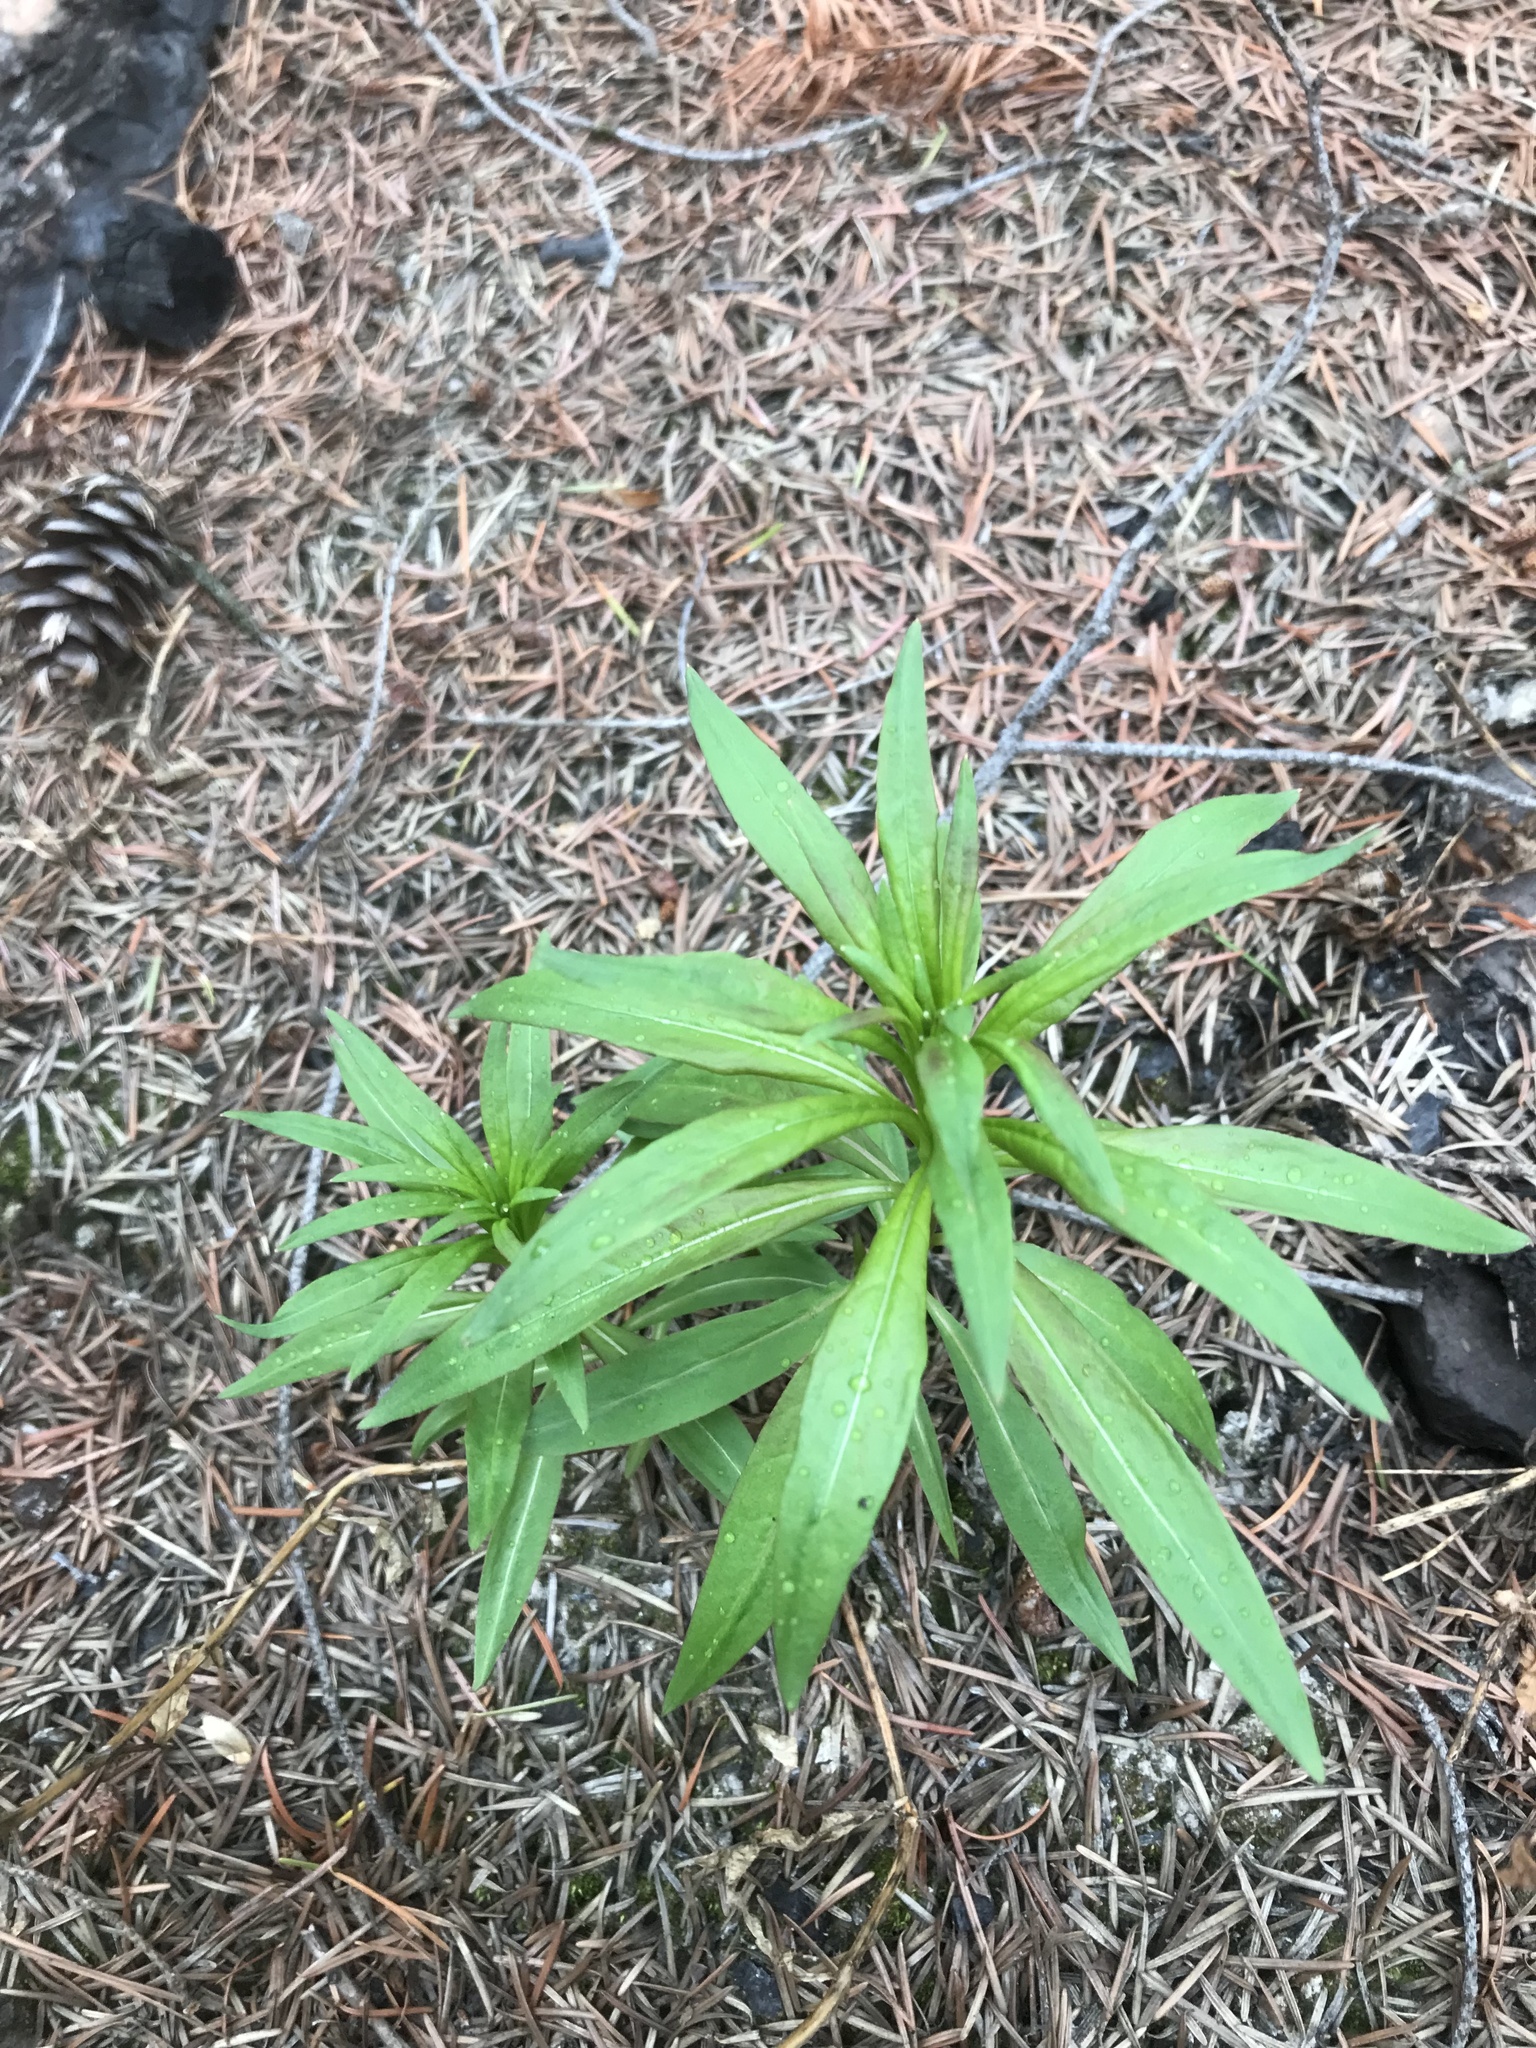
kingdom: Plantae
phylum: Tracheophyta
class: Magnoliopsida
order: Myrtales
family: Onagraceae
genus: Chamaenerion
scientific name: Chamaenerion angustifolium
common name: Fireweed
